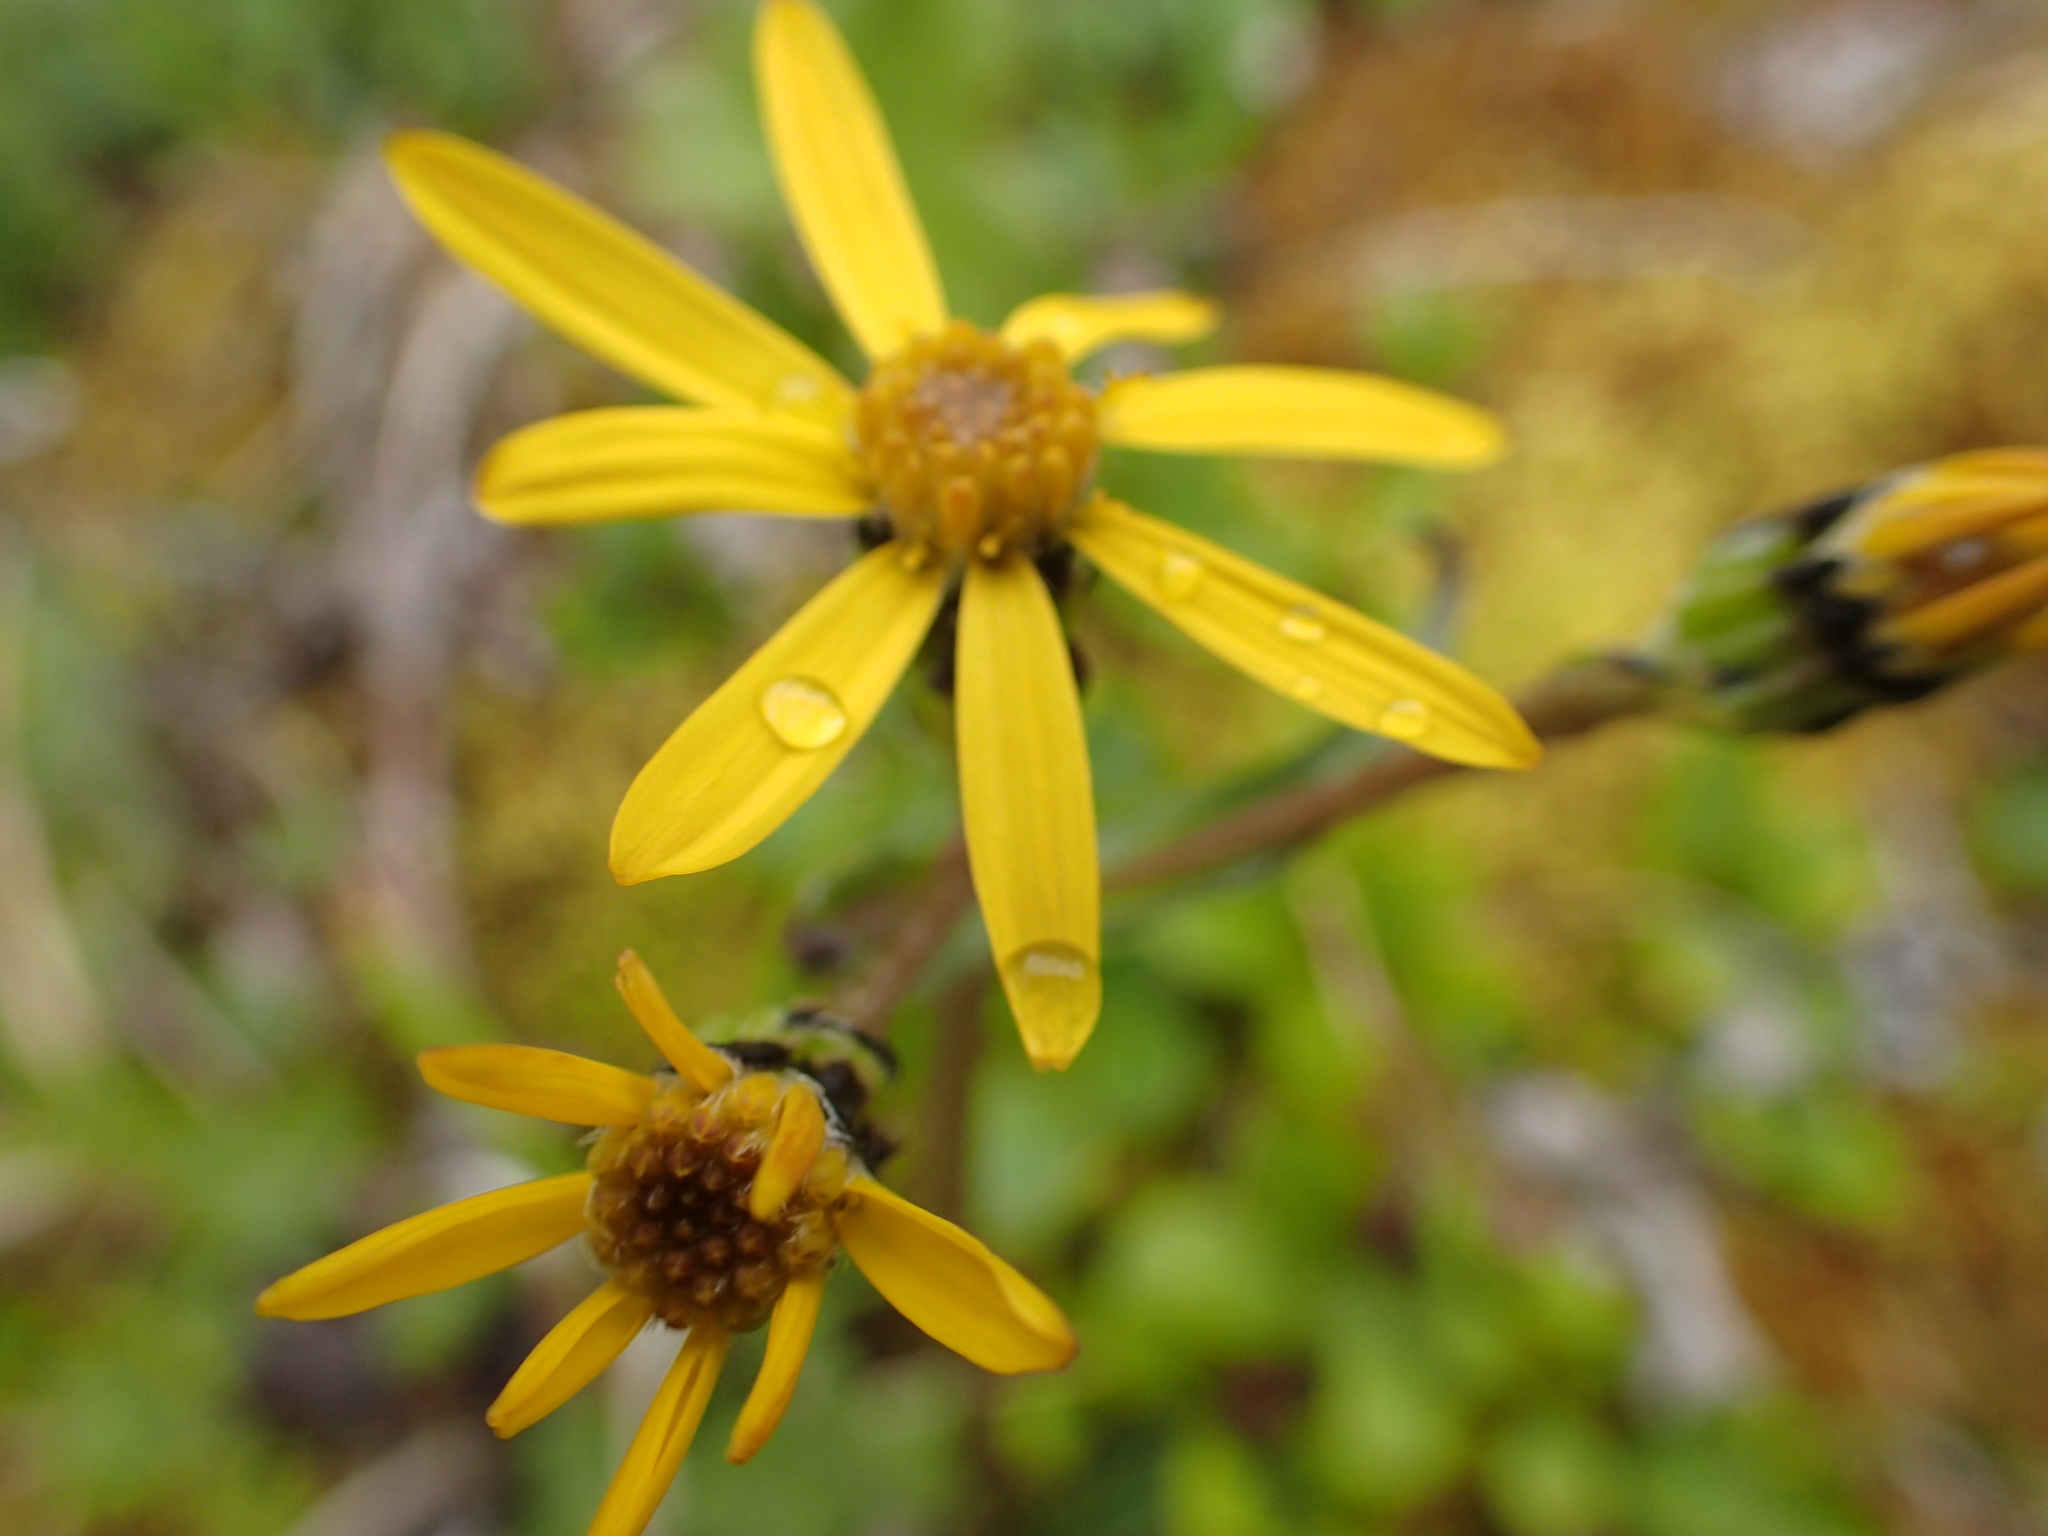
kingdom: Plantae
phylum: Tracheophyta
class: Magnoliopsida
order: Asterales
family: Asteraceae
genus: Senecio
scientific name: Senecio lugens
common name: Black-tip groundsel
